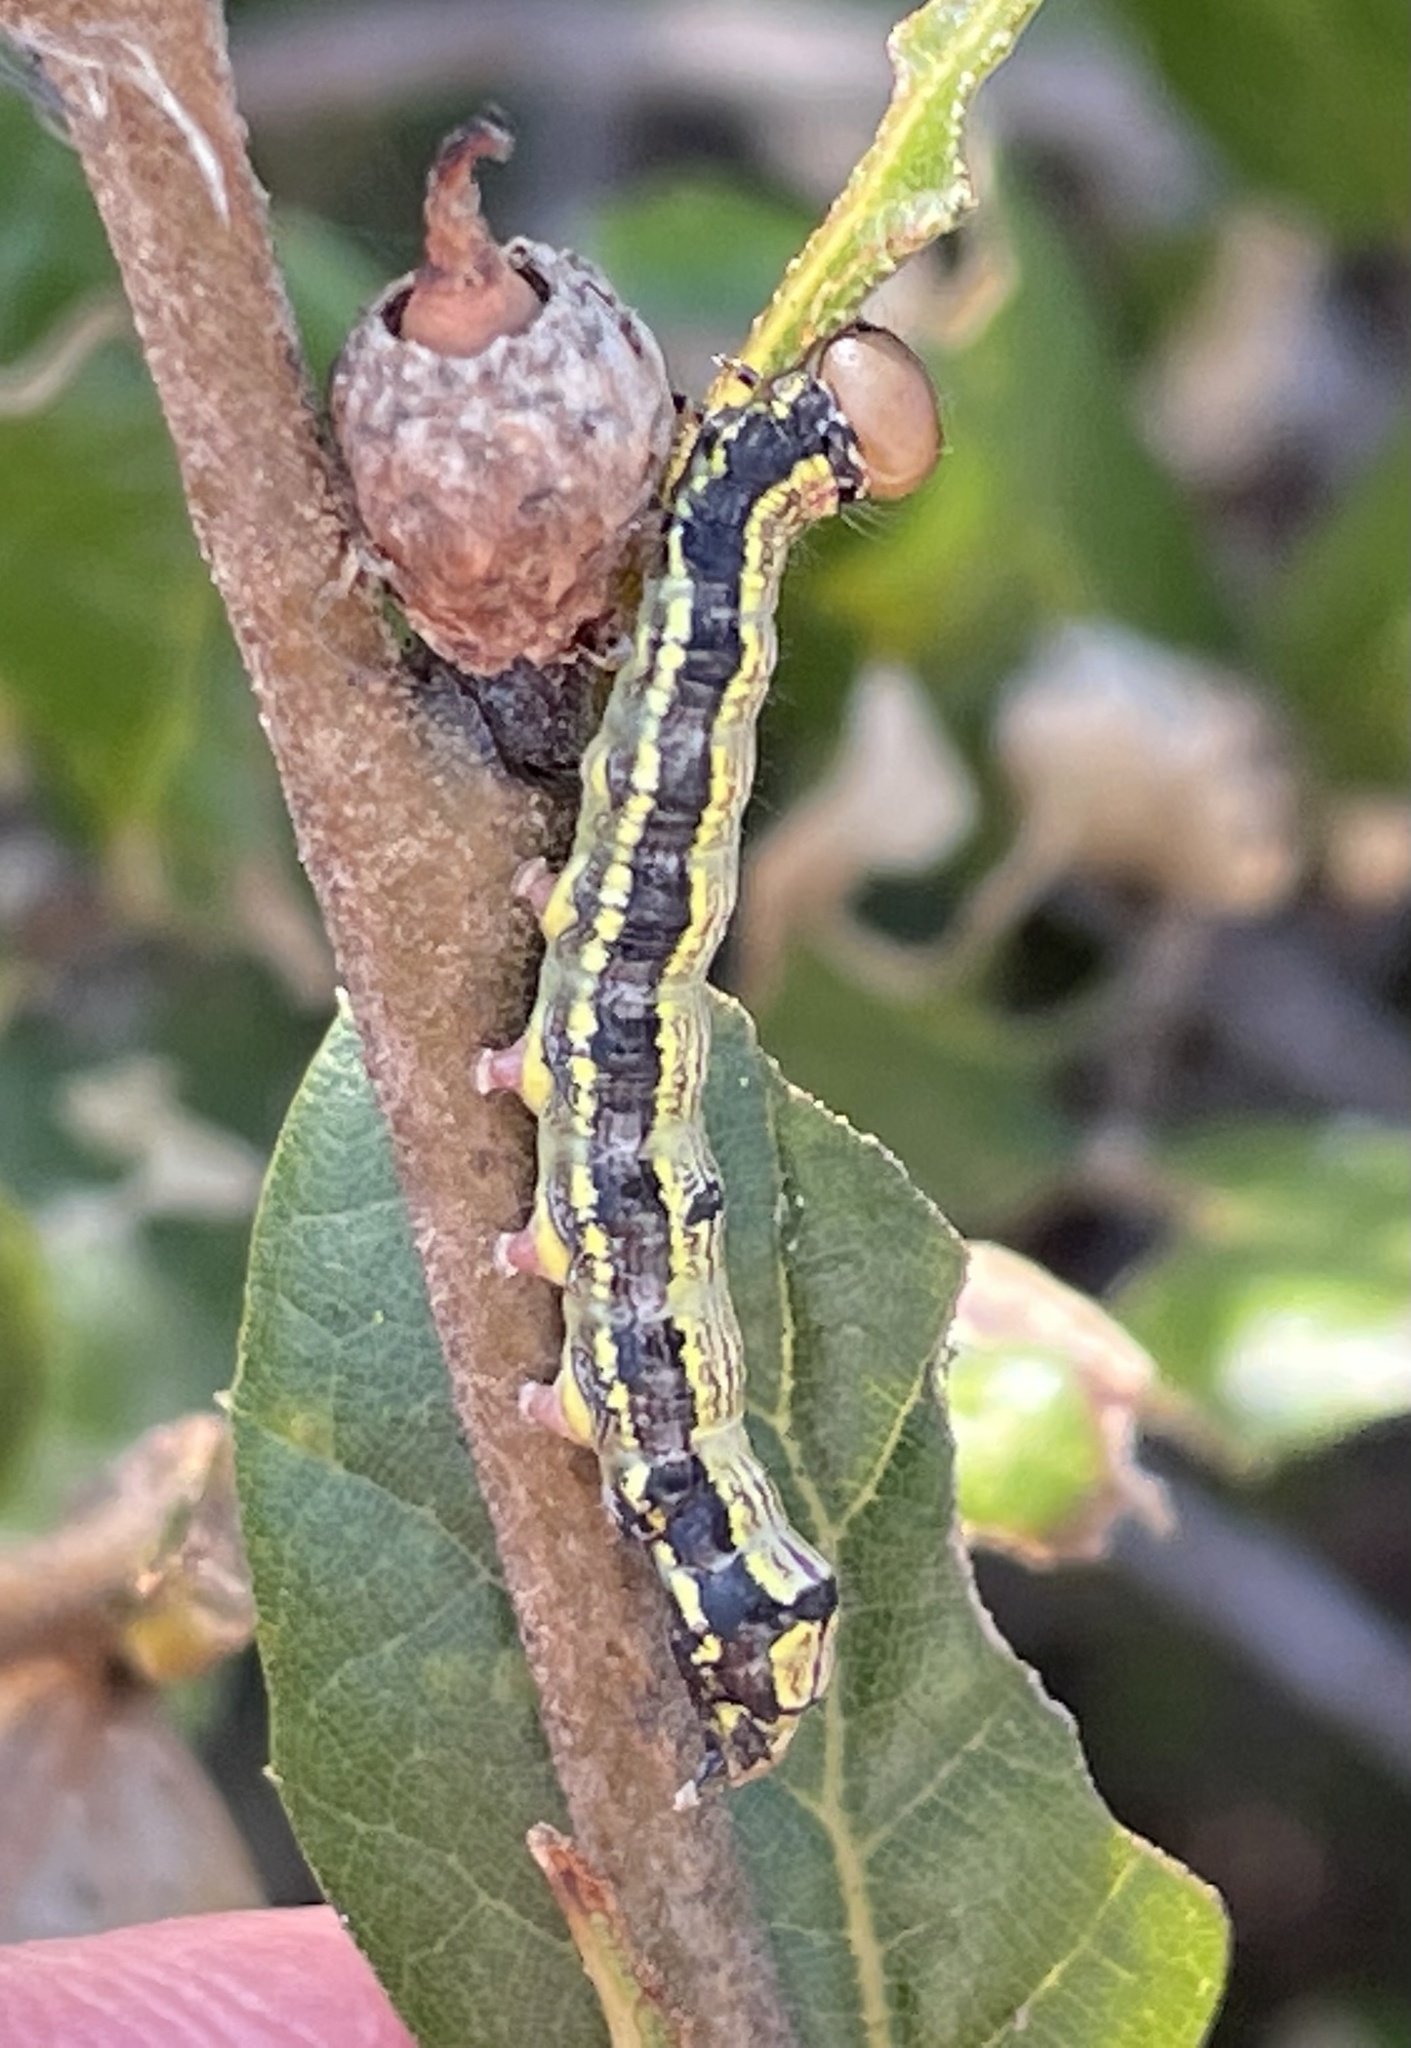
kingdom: Animalia
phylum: Arthropoda
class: Insecta
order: Lepidoptera
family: Notodontidae
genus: Phryganidia
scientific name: Phryganidia californica
